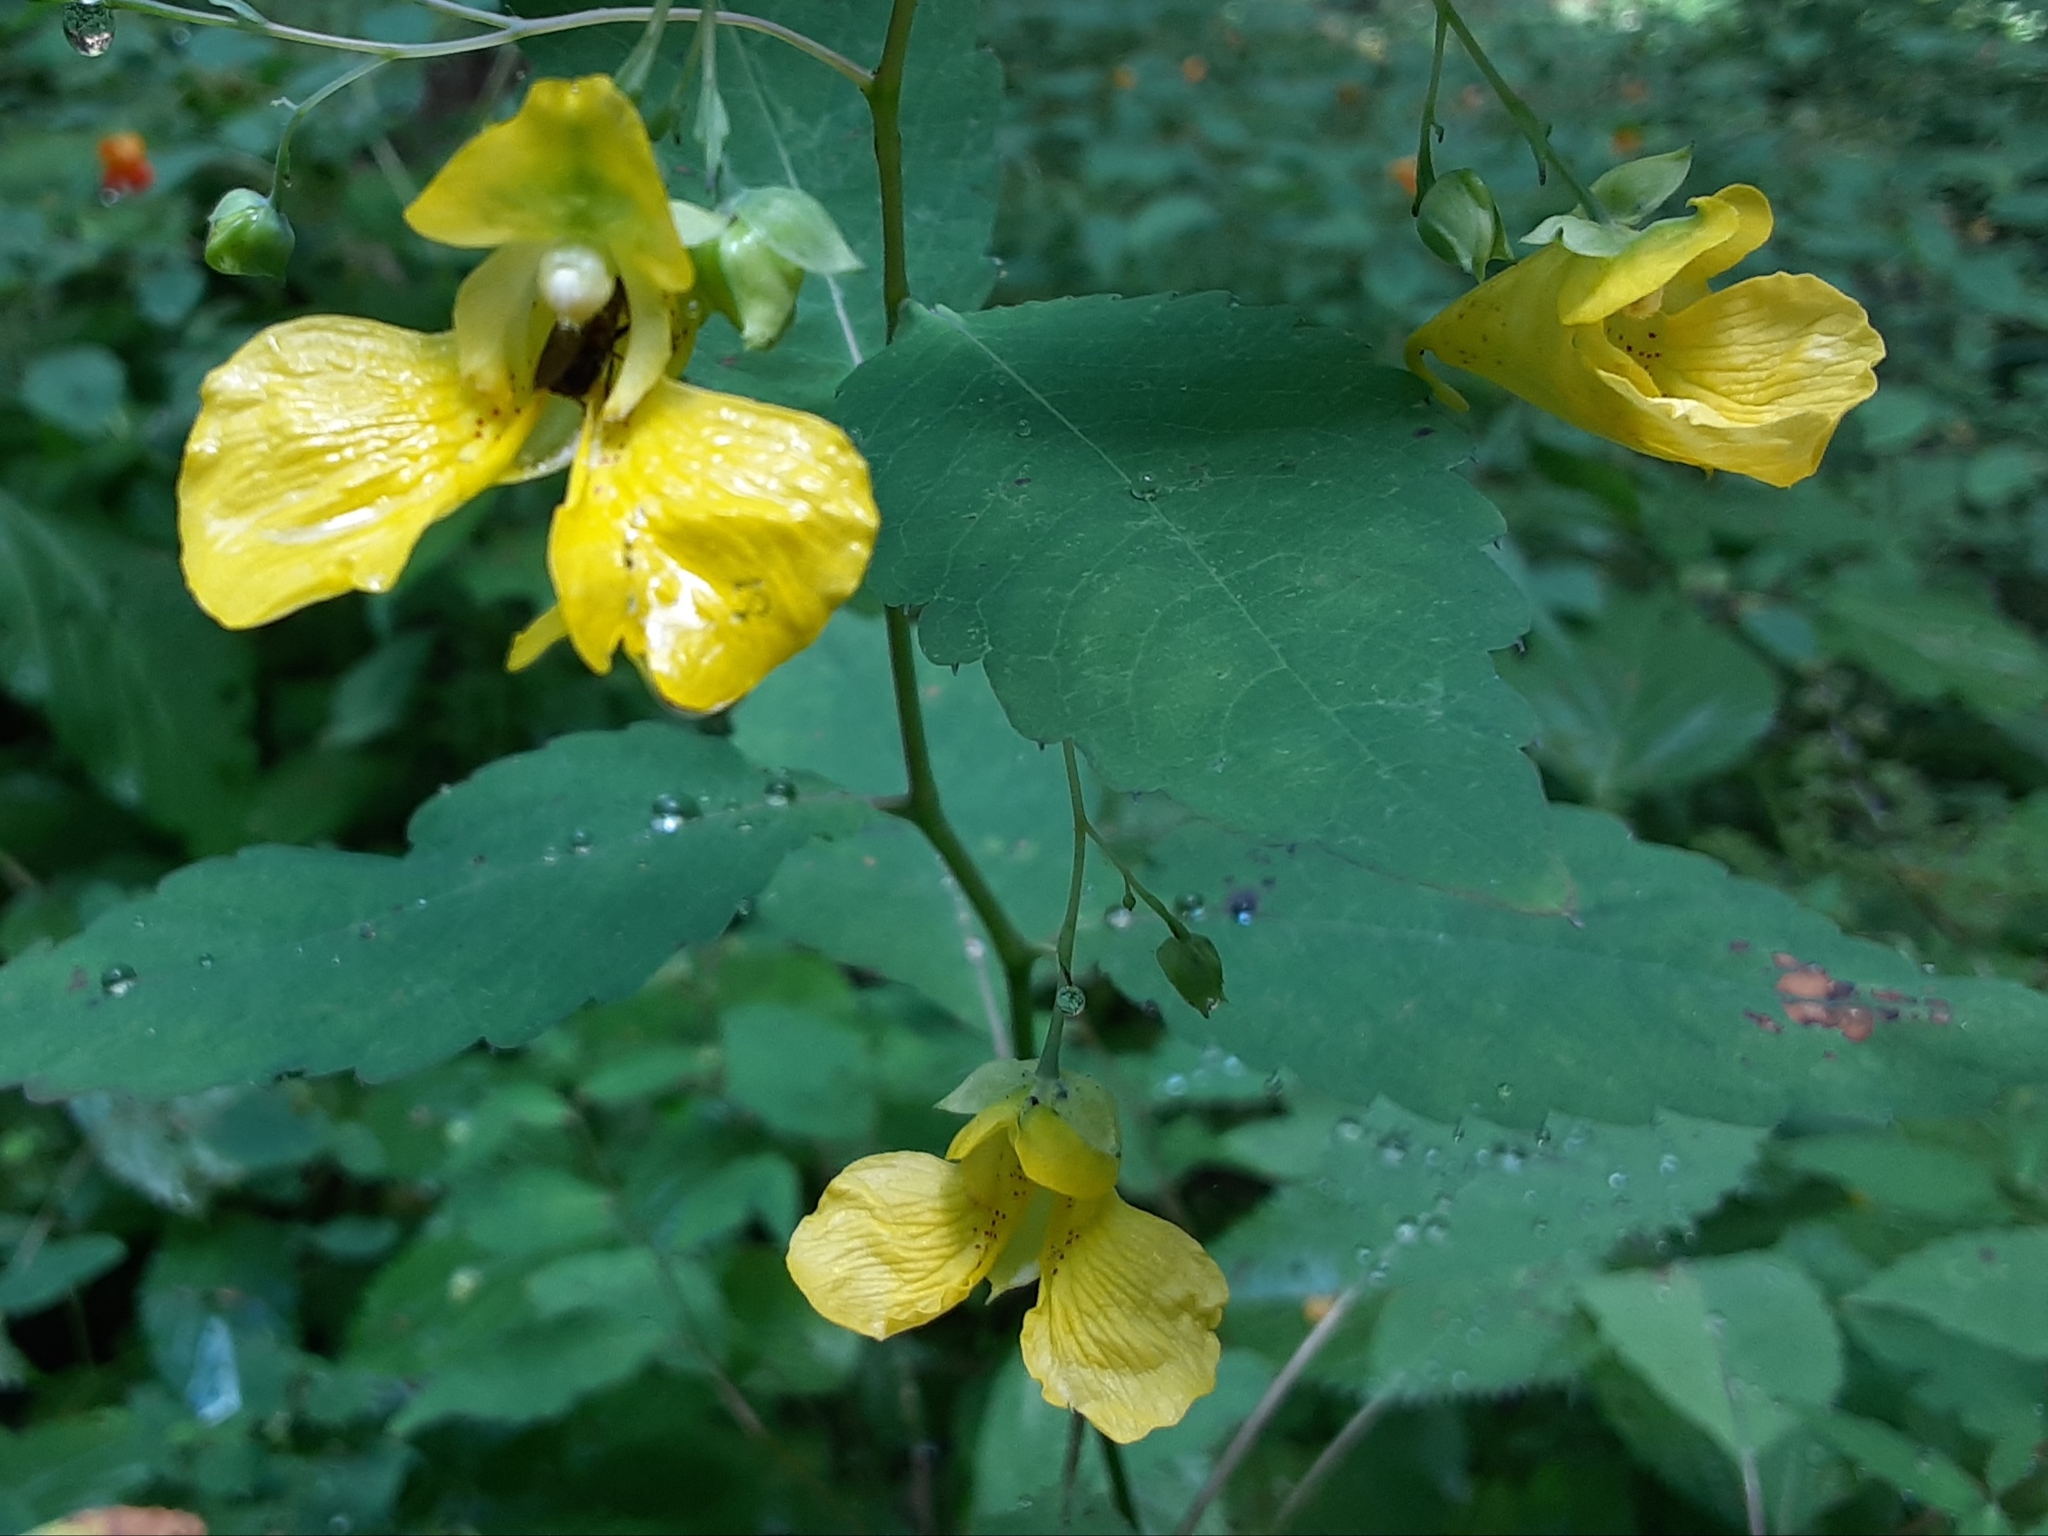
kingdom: Plantae
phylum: Tracheophyta
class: Magnoliopsida
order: Ericales
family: Balsaminaceae
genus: Impatiens
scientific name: Impatiens pallida
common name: Pale snapweed
